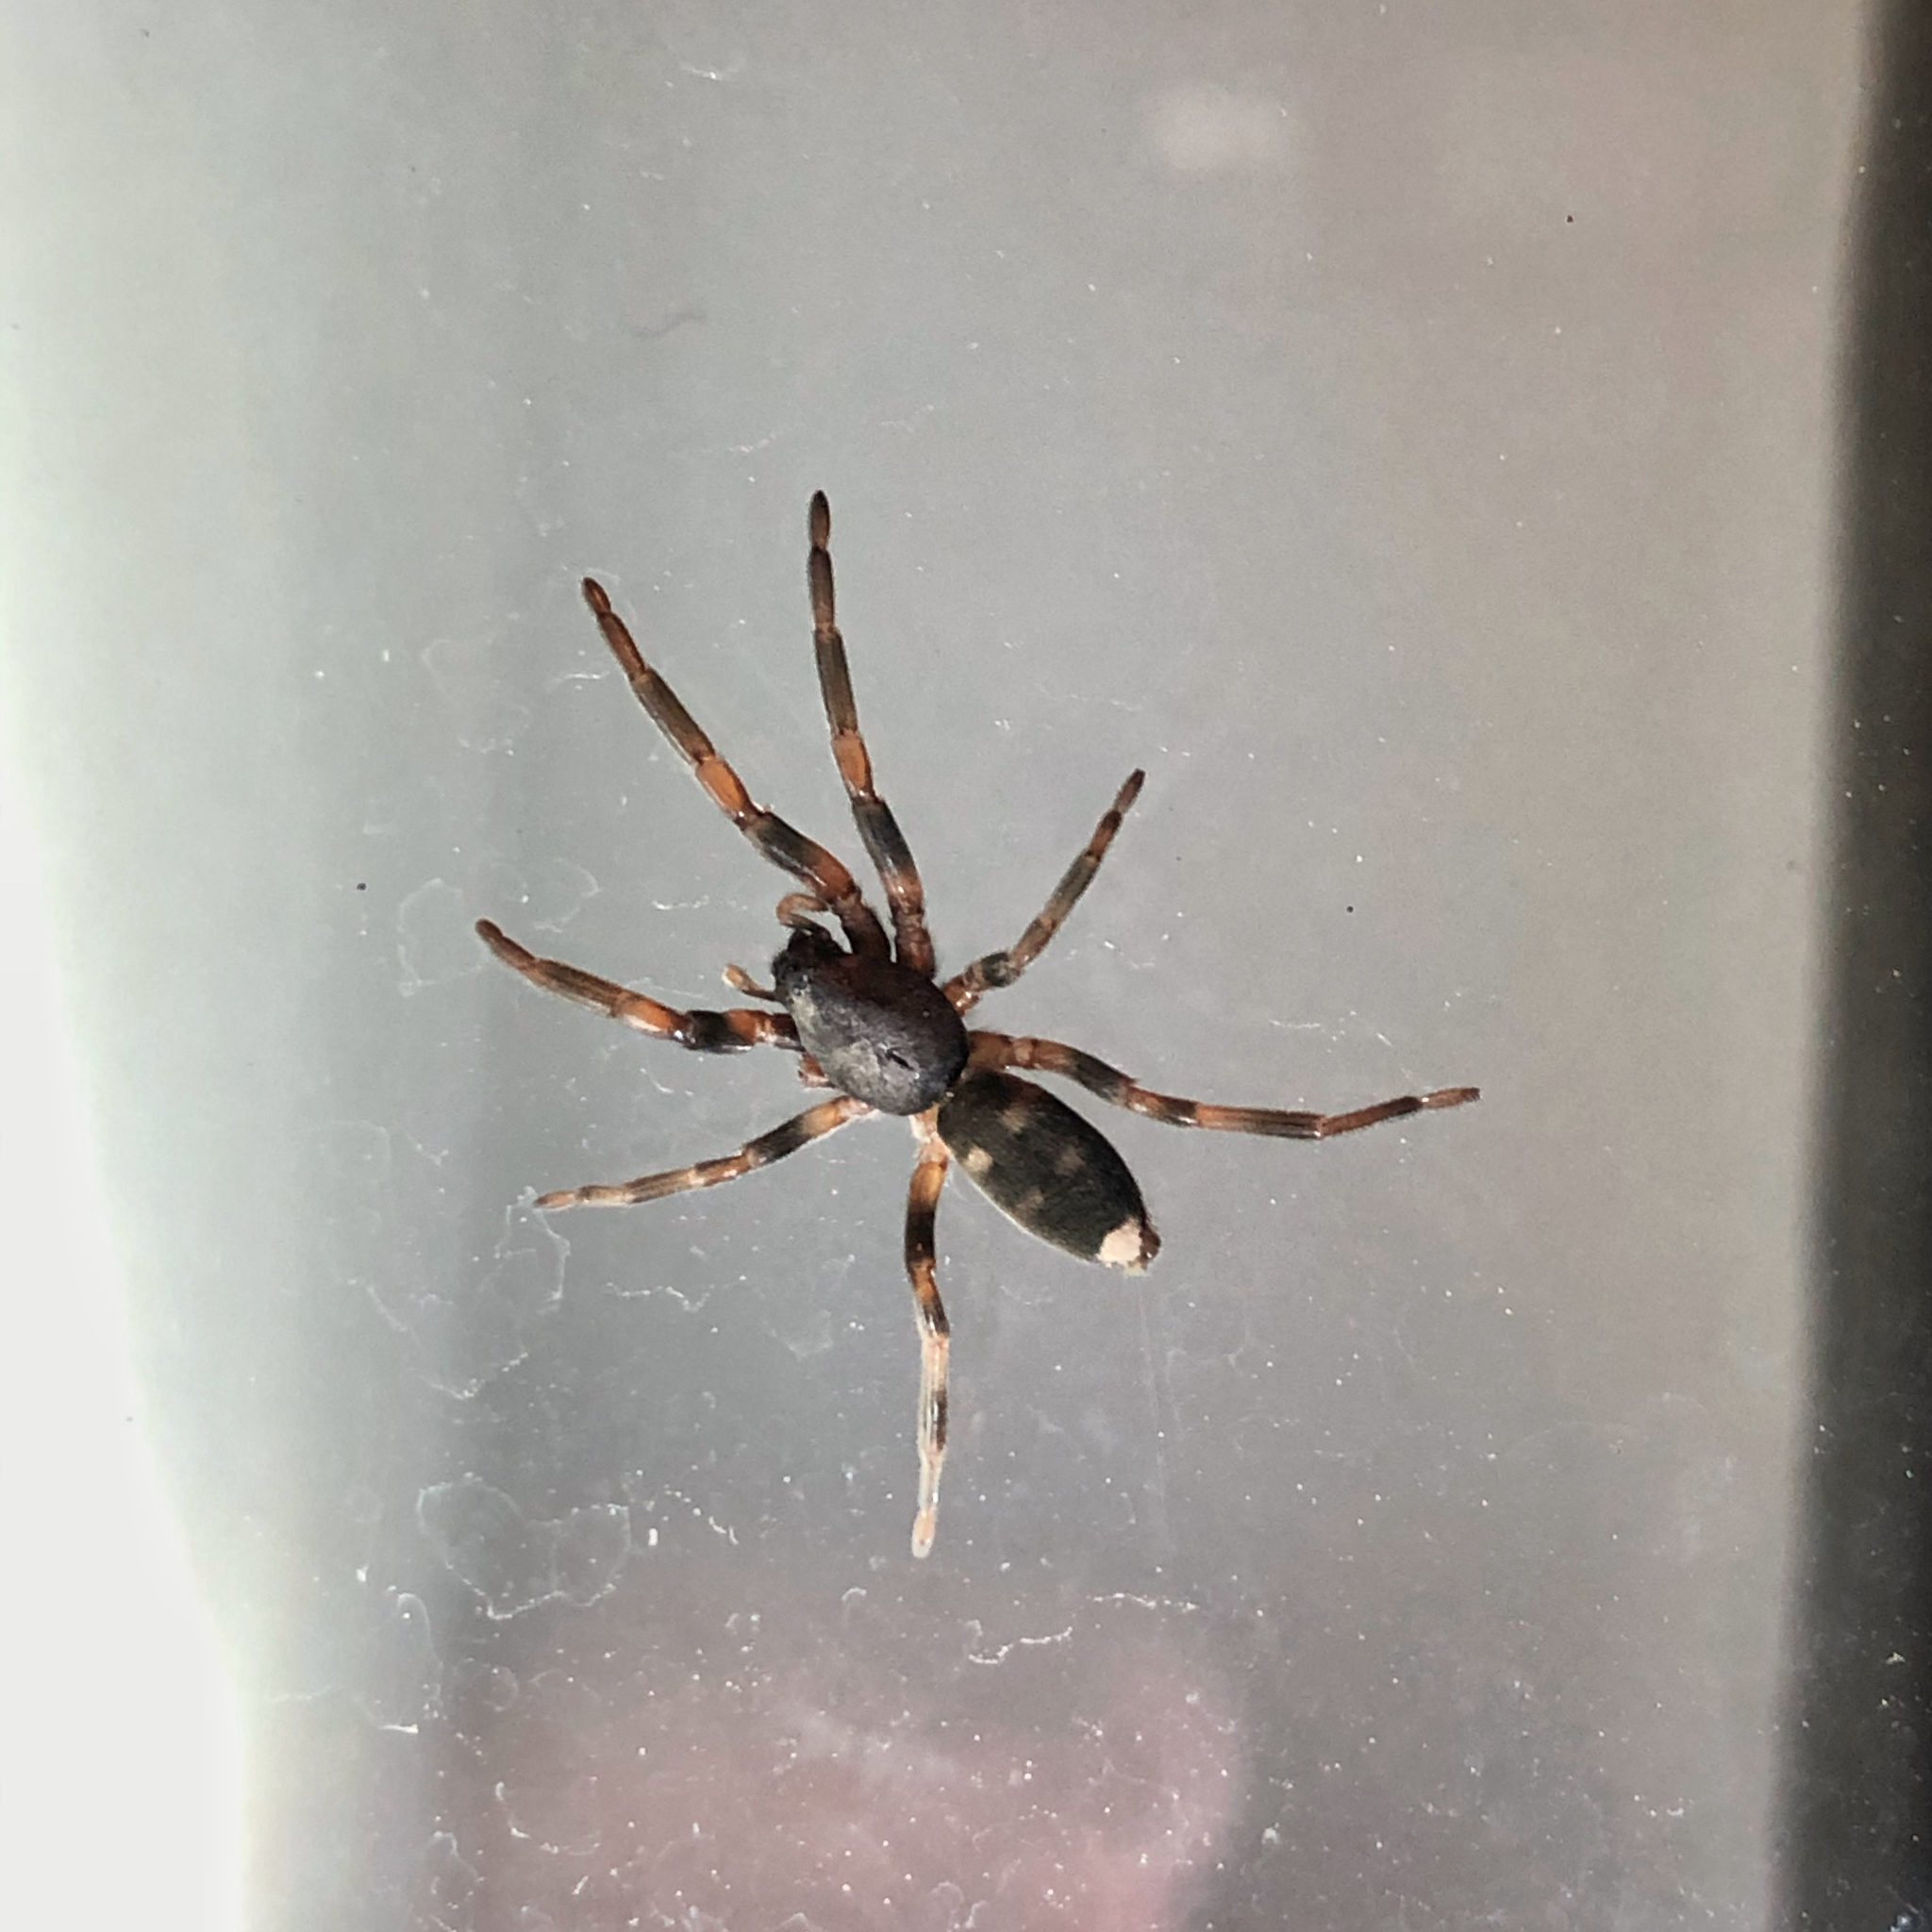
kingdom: Animalia
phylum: Arthropoda
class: Arachnida
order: Araneae
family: Lamponidae
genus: Lampona
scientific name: Lampona cylindrata
